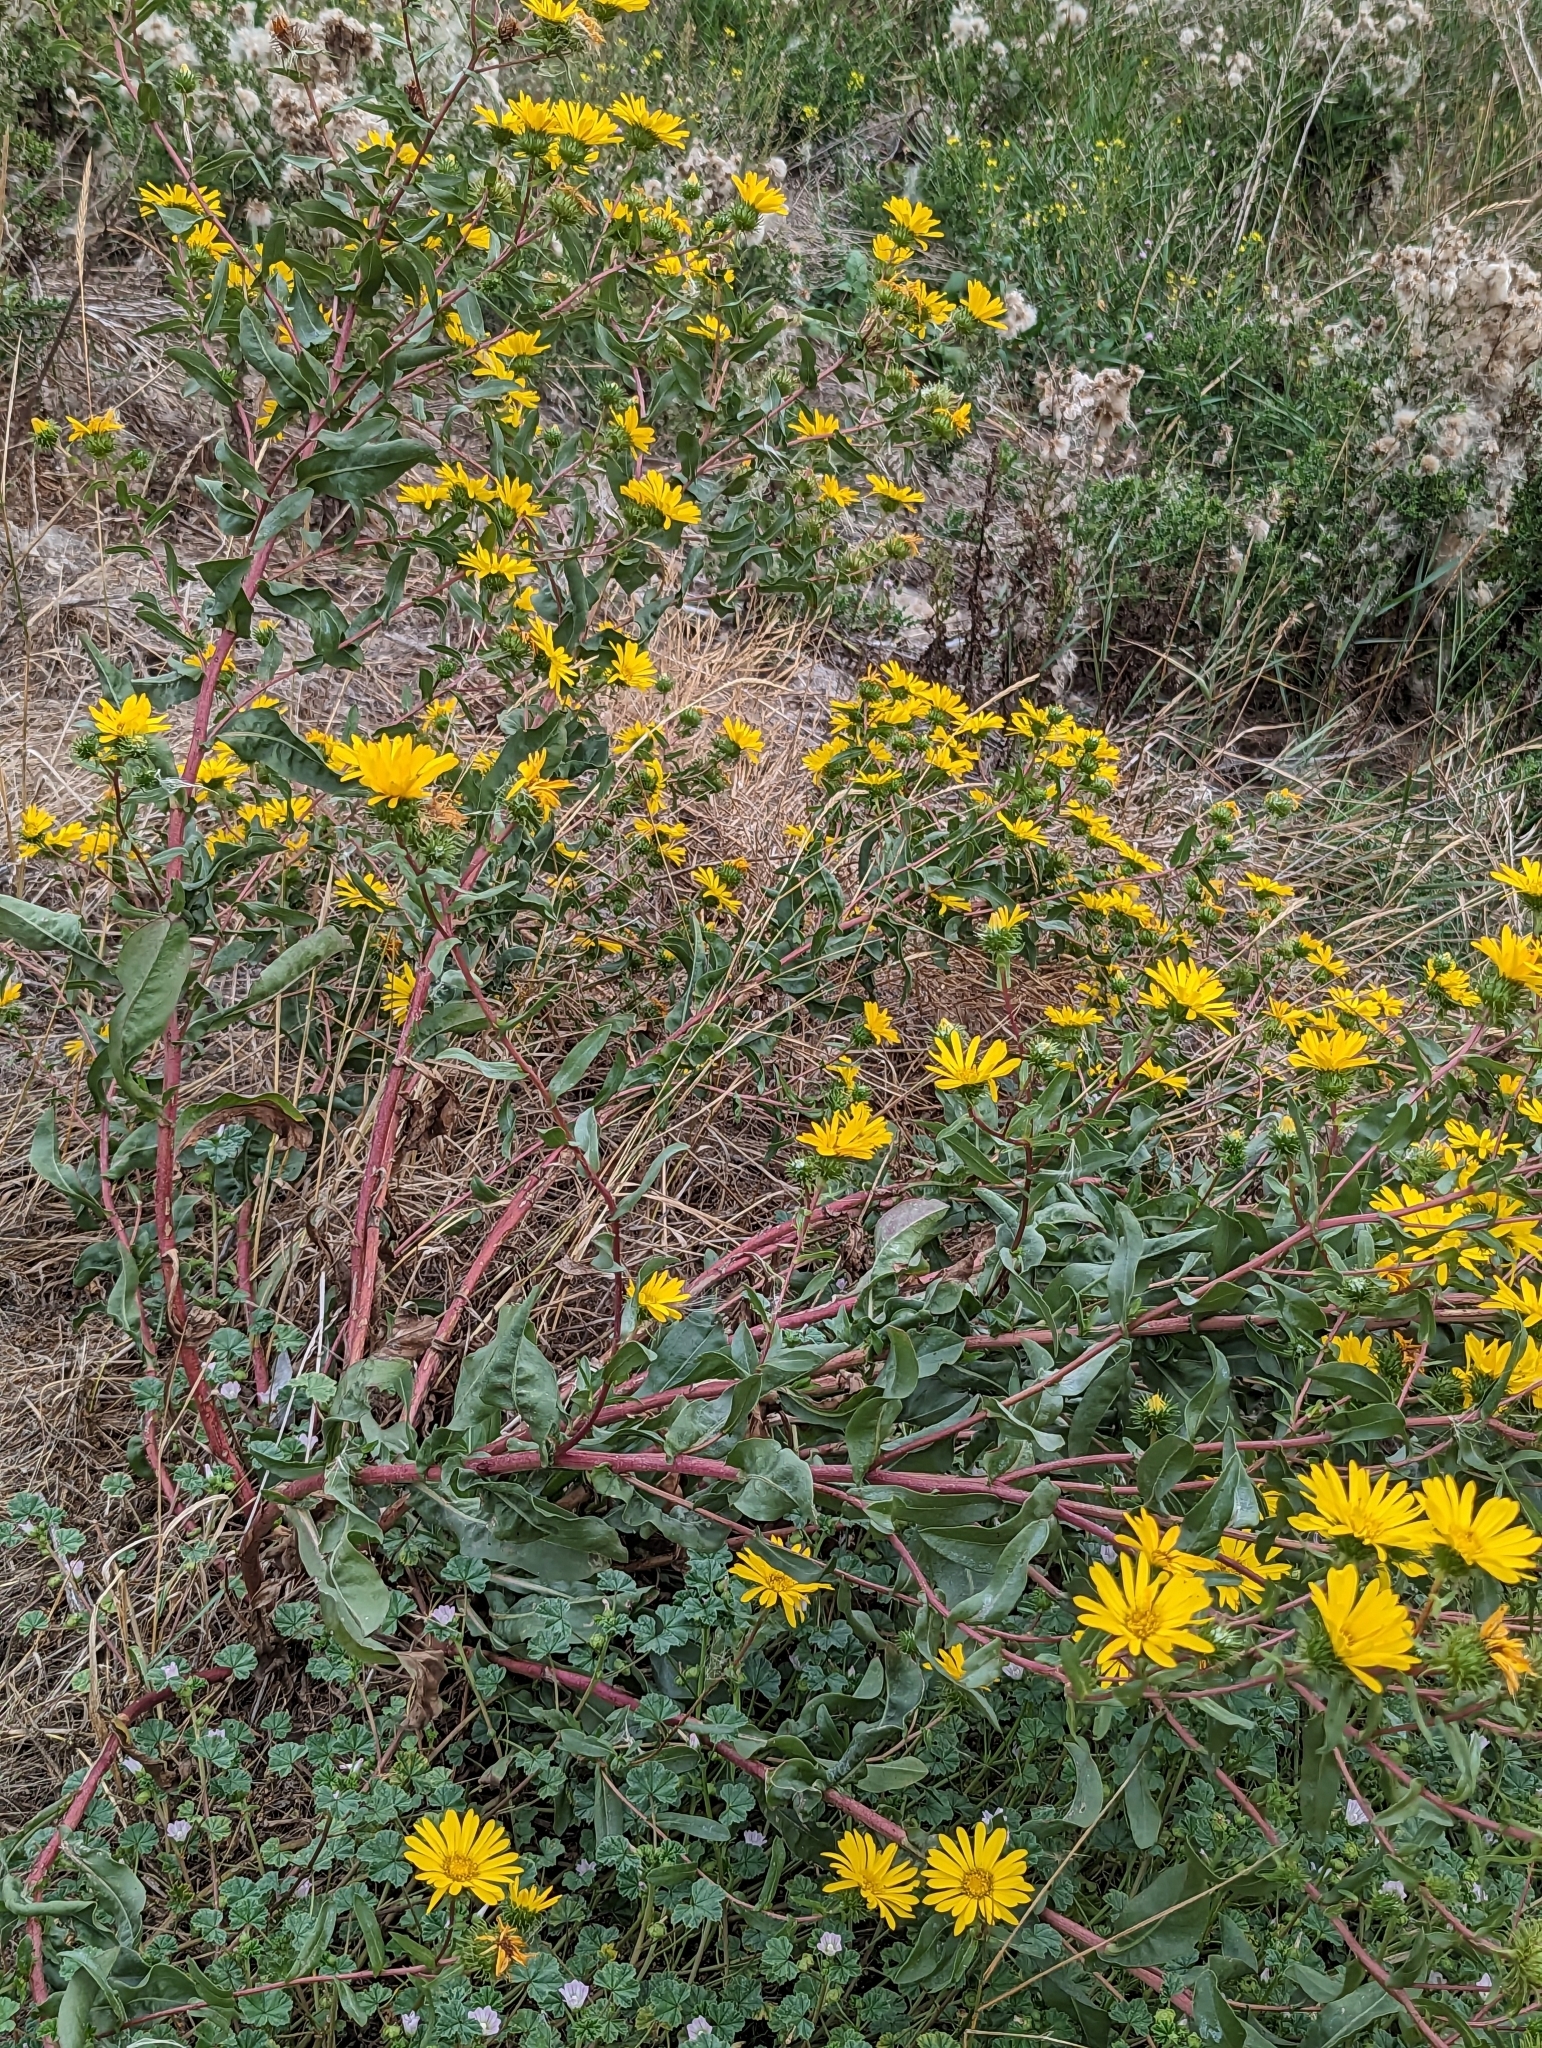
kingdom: Plantae
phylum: Tracheophyta
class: Magnoliopsida
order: Asterales
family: Asteraceae
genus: Grindelia
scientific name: Grindelia integrifolia
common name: Puget sound gumweed
